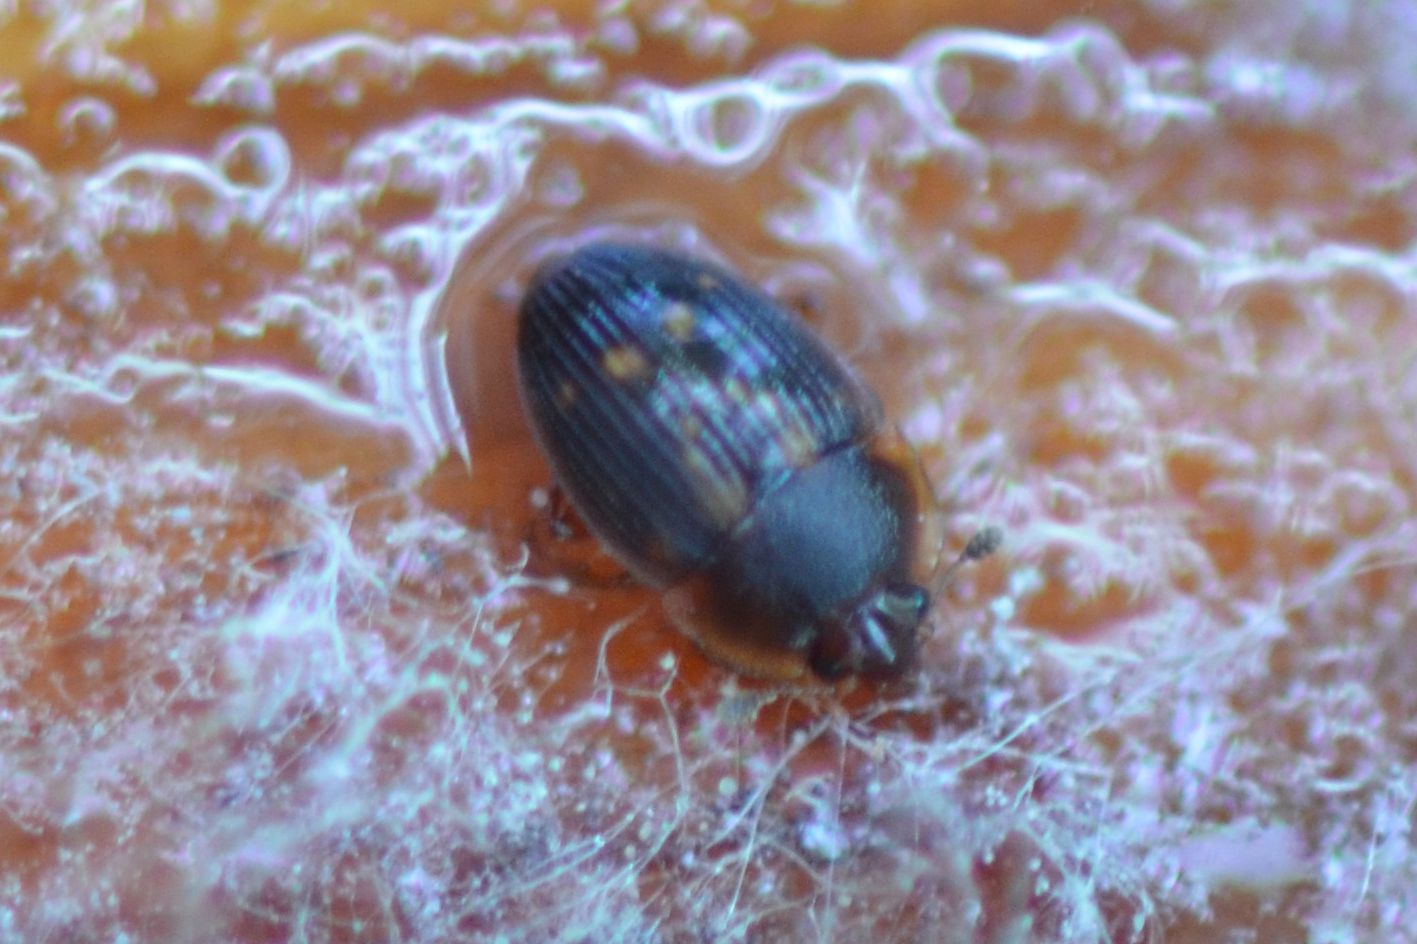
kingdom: Animalia
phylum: Arthropoda
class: Insecta
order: Coleoptera
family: Nitidulidae
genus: Stelidota
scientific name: Stelidota geminata
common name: Strawberry sap beetle
